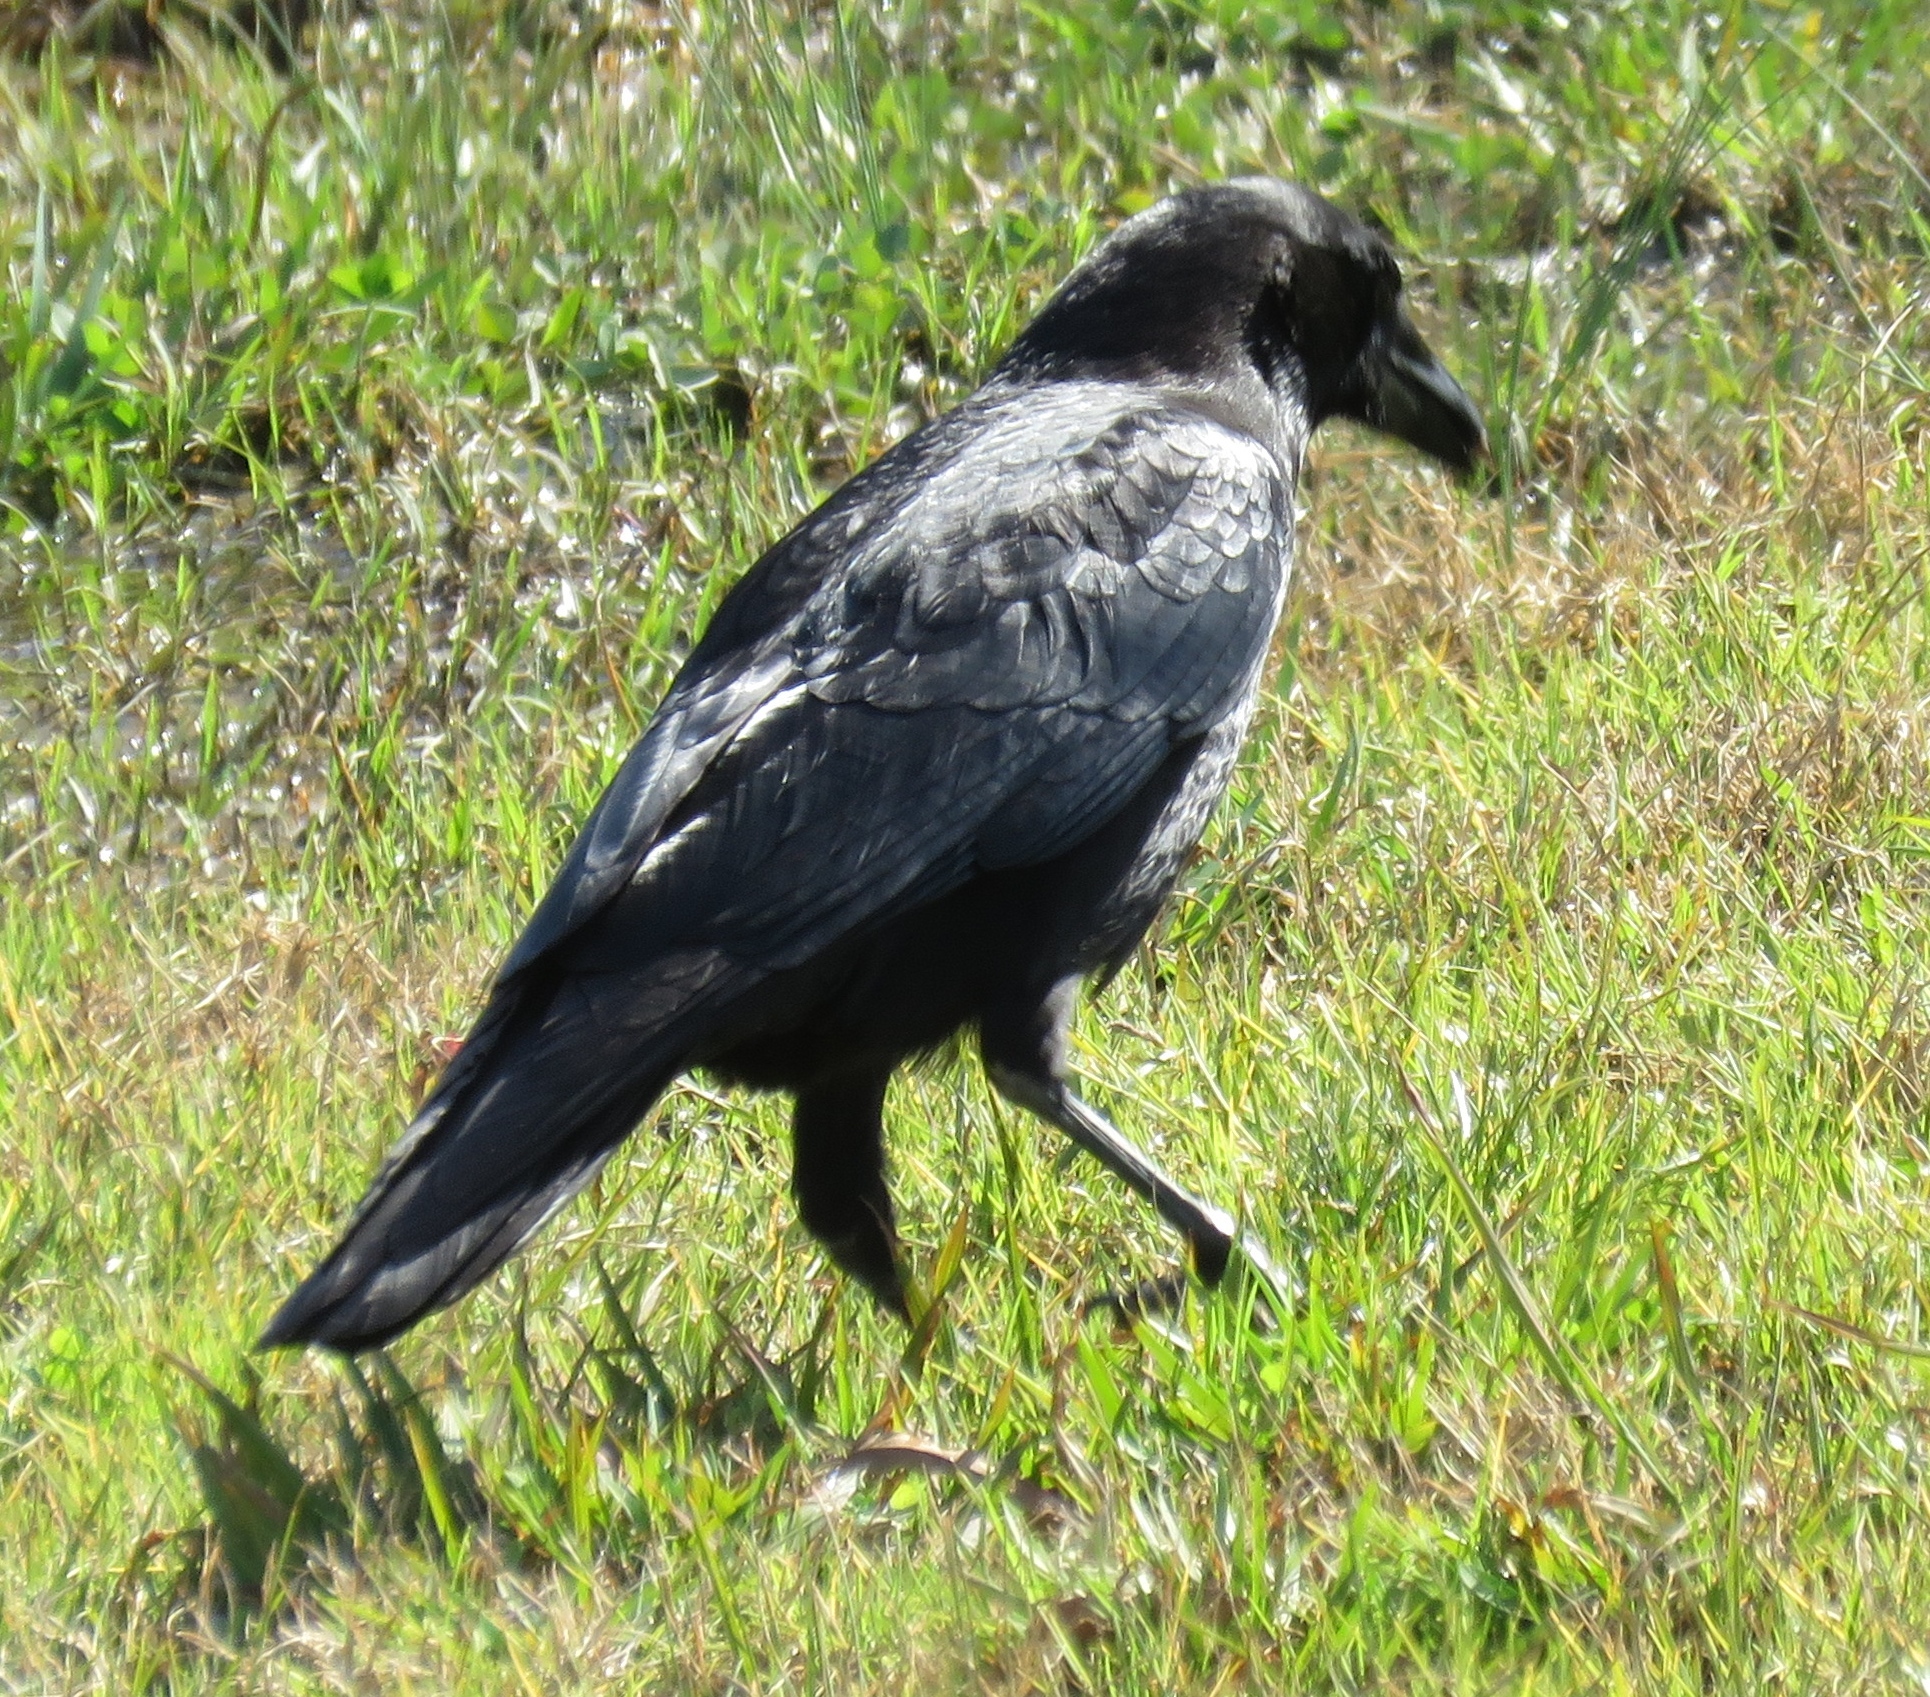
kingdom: Animalia
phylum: Chordata
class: Aves
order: Passeriformes
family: Corvidae
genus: Corvus
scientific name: Corvus brachyrhynchos
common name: American crow
